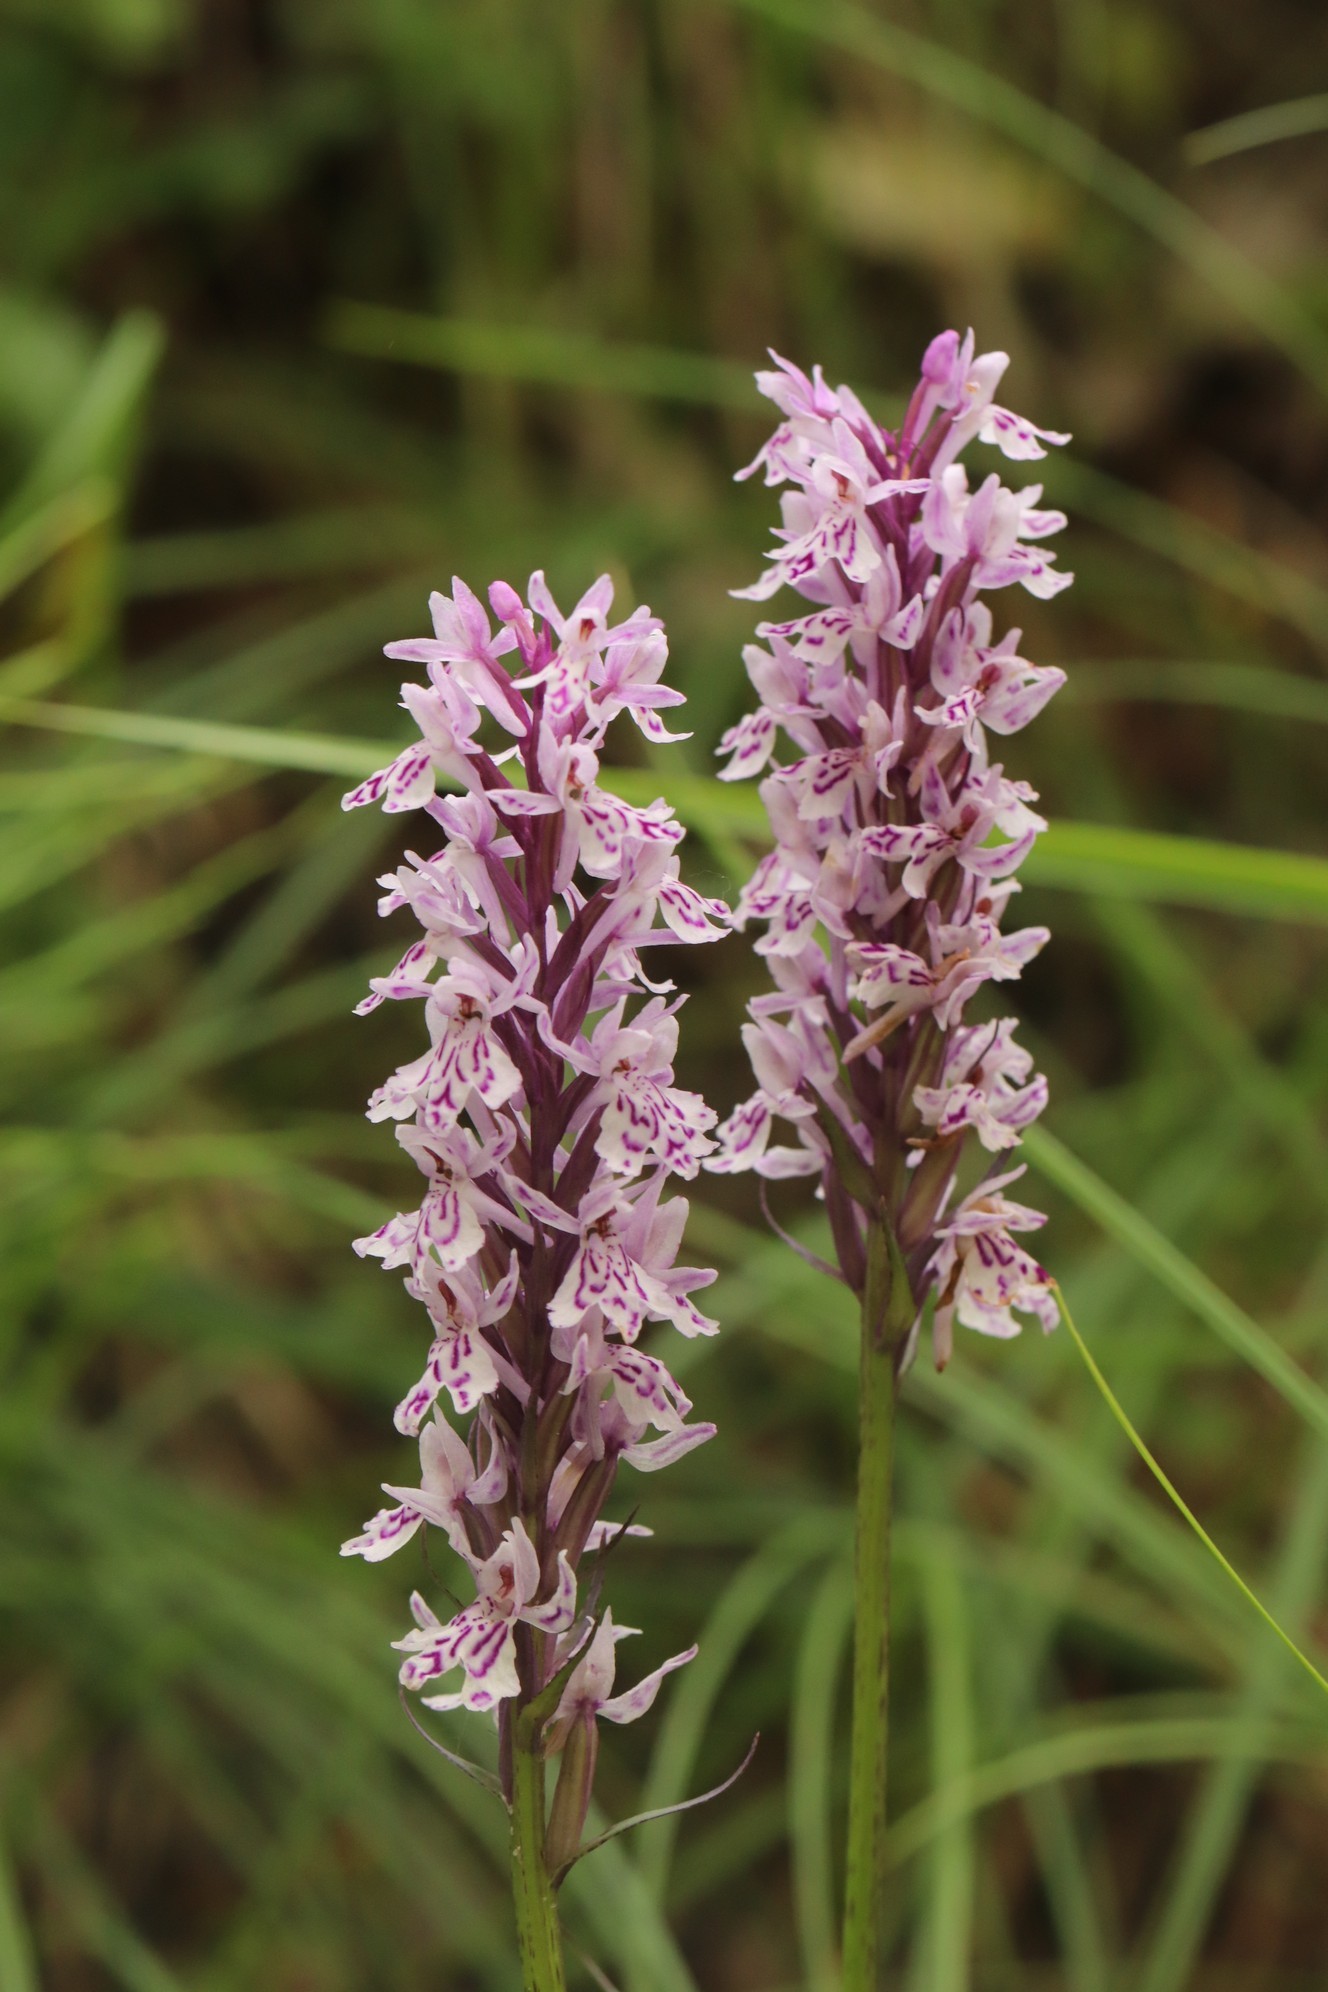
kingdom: Plantae
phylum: Tracheophyta
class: Liliopsida
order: Asparagales
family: Orchidaceae
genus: Dactylorhiza
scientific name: Dactylorhiza maculata
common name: Heath spotted-orchid
